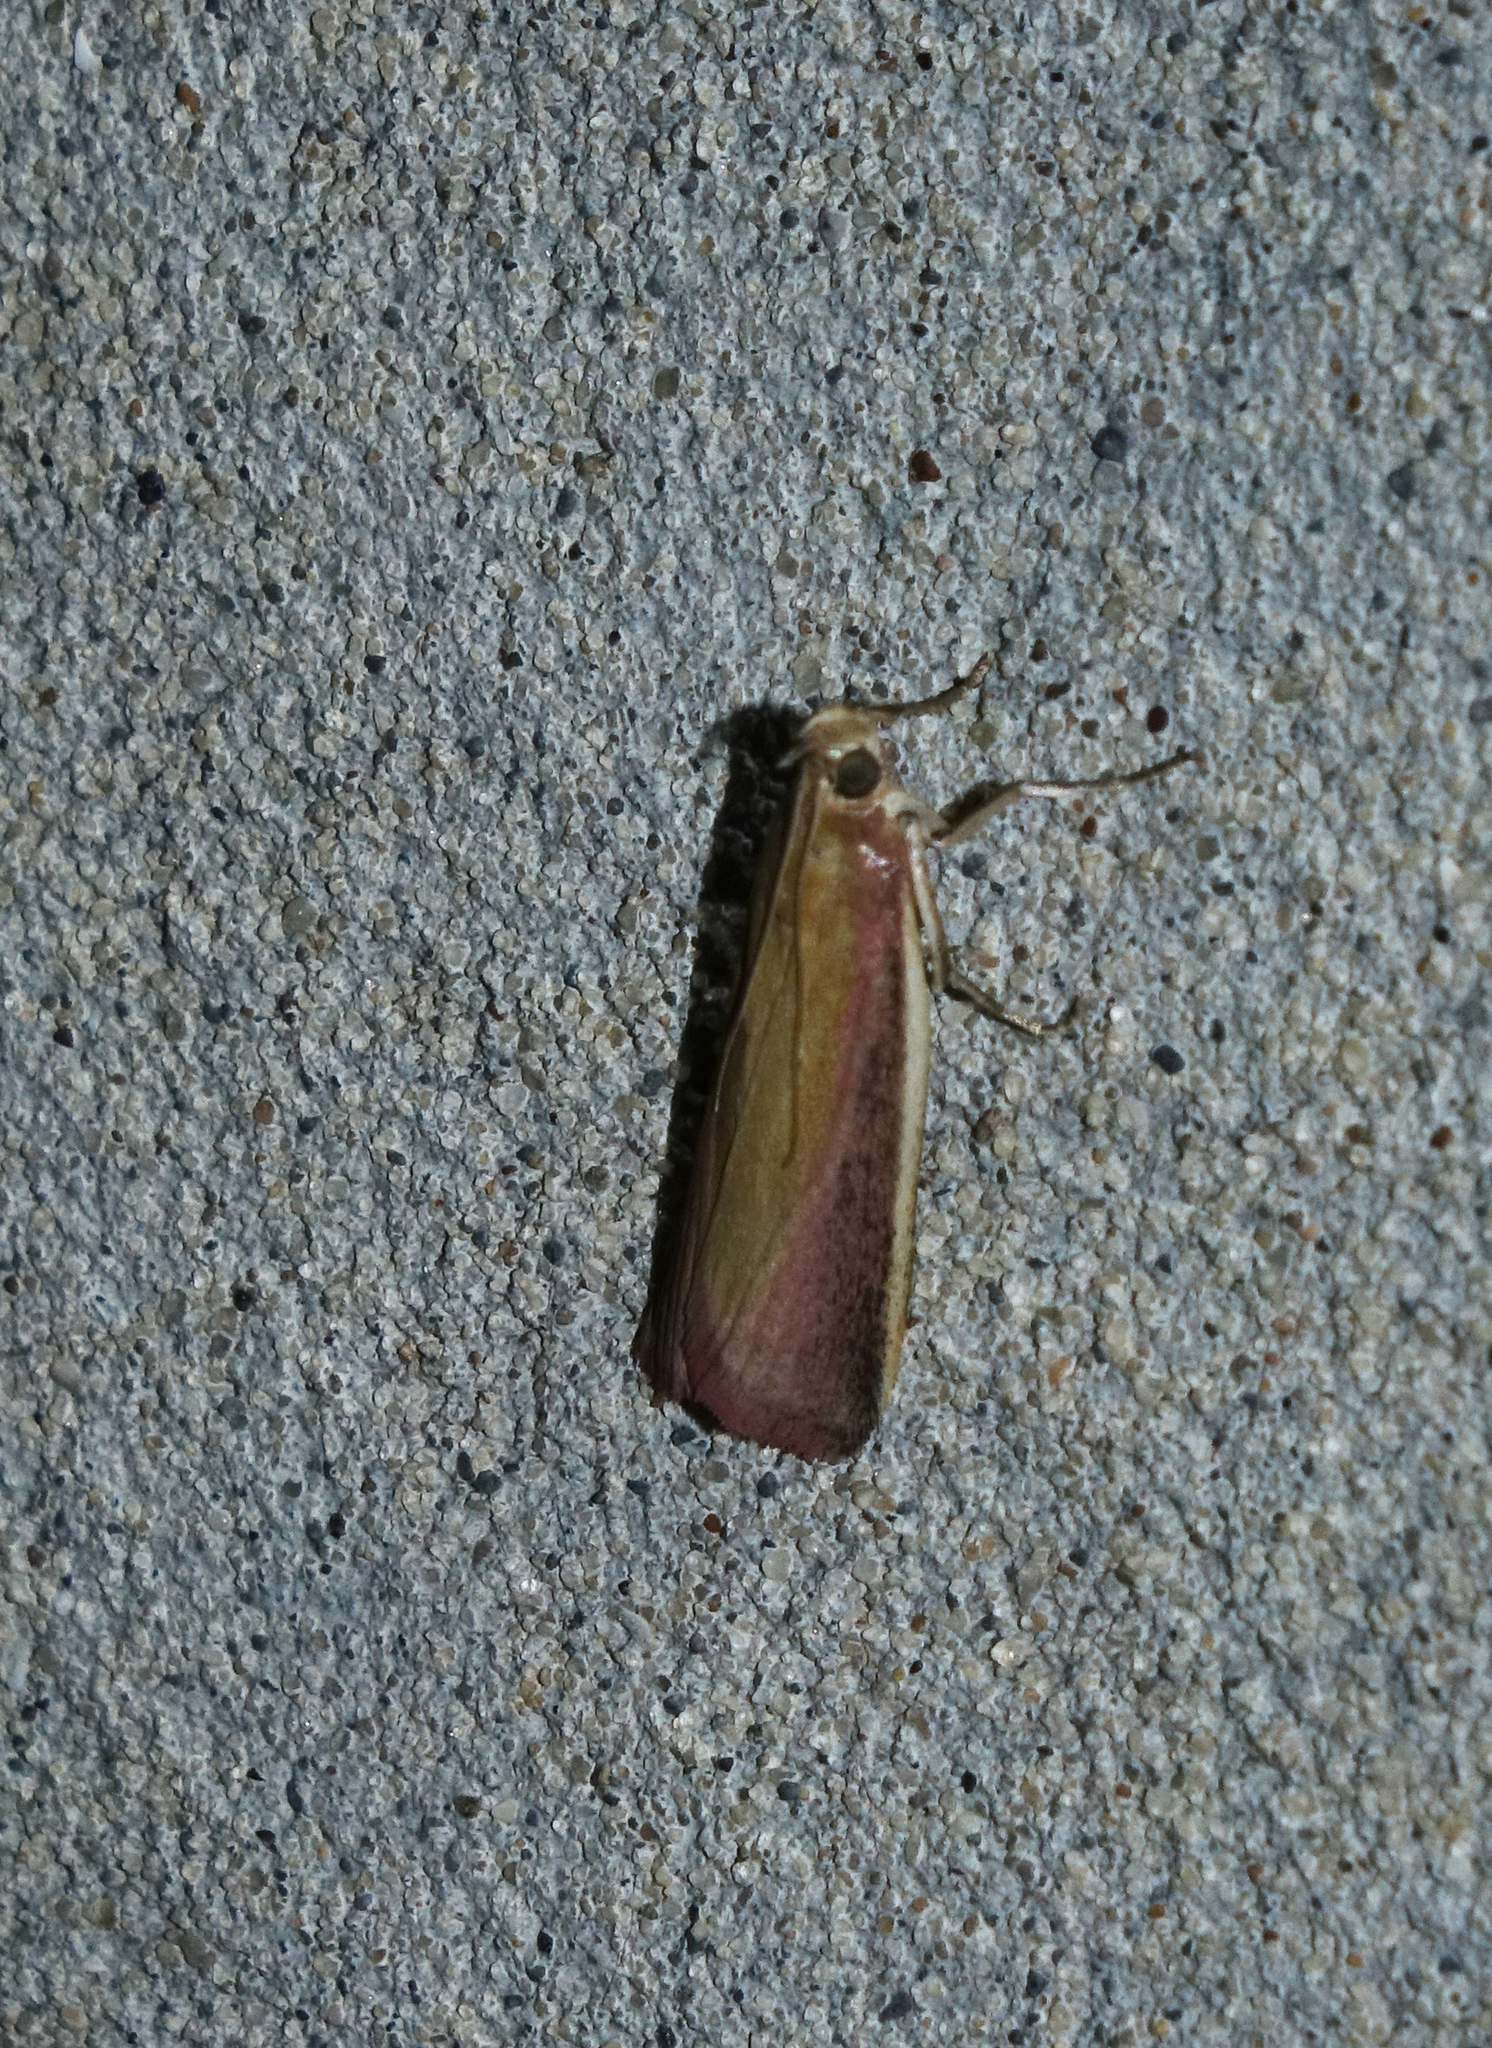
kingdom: Animalia
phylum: Arthropoda
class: Insecta
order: Lepidoptera
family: Pyralidae
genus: Oncocera
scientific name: Oncocera semirubella
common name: Rosy-striped knot-horn
